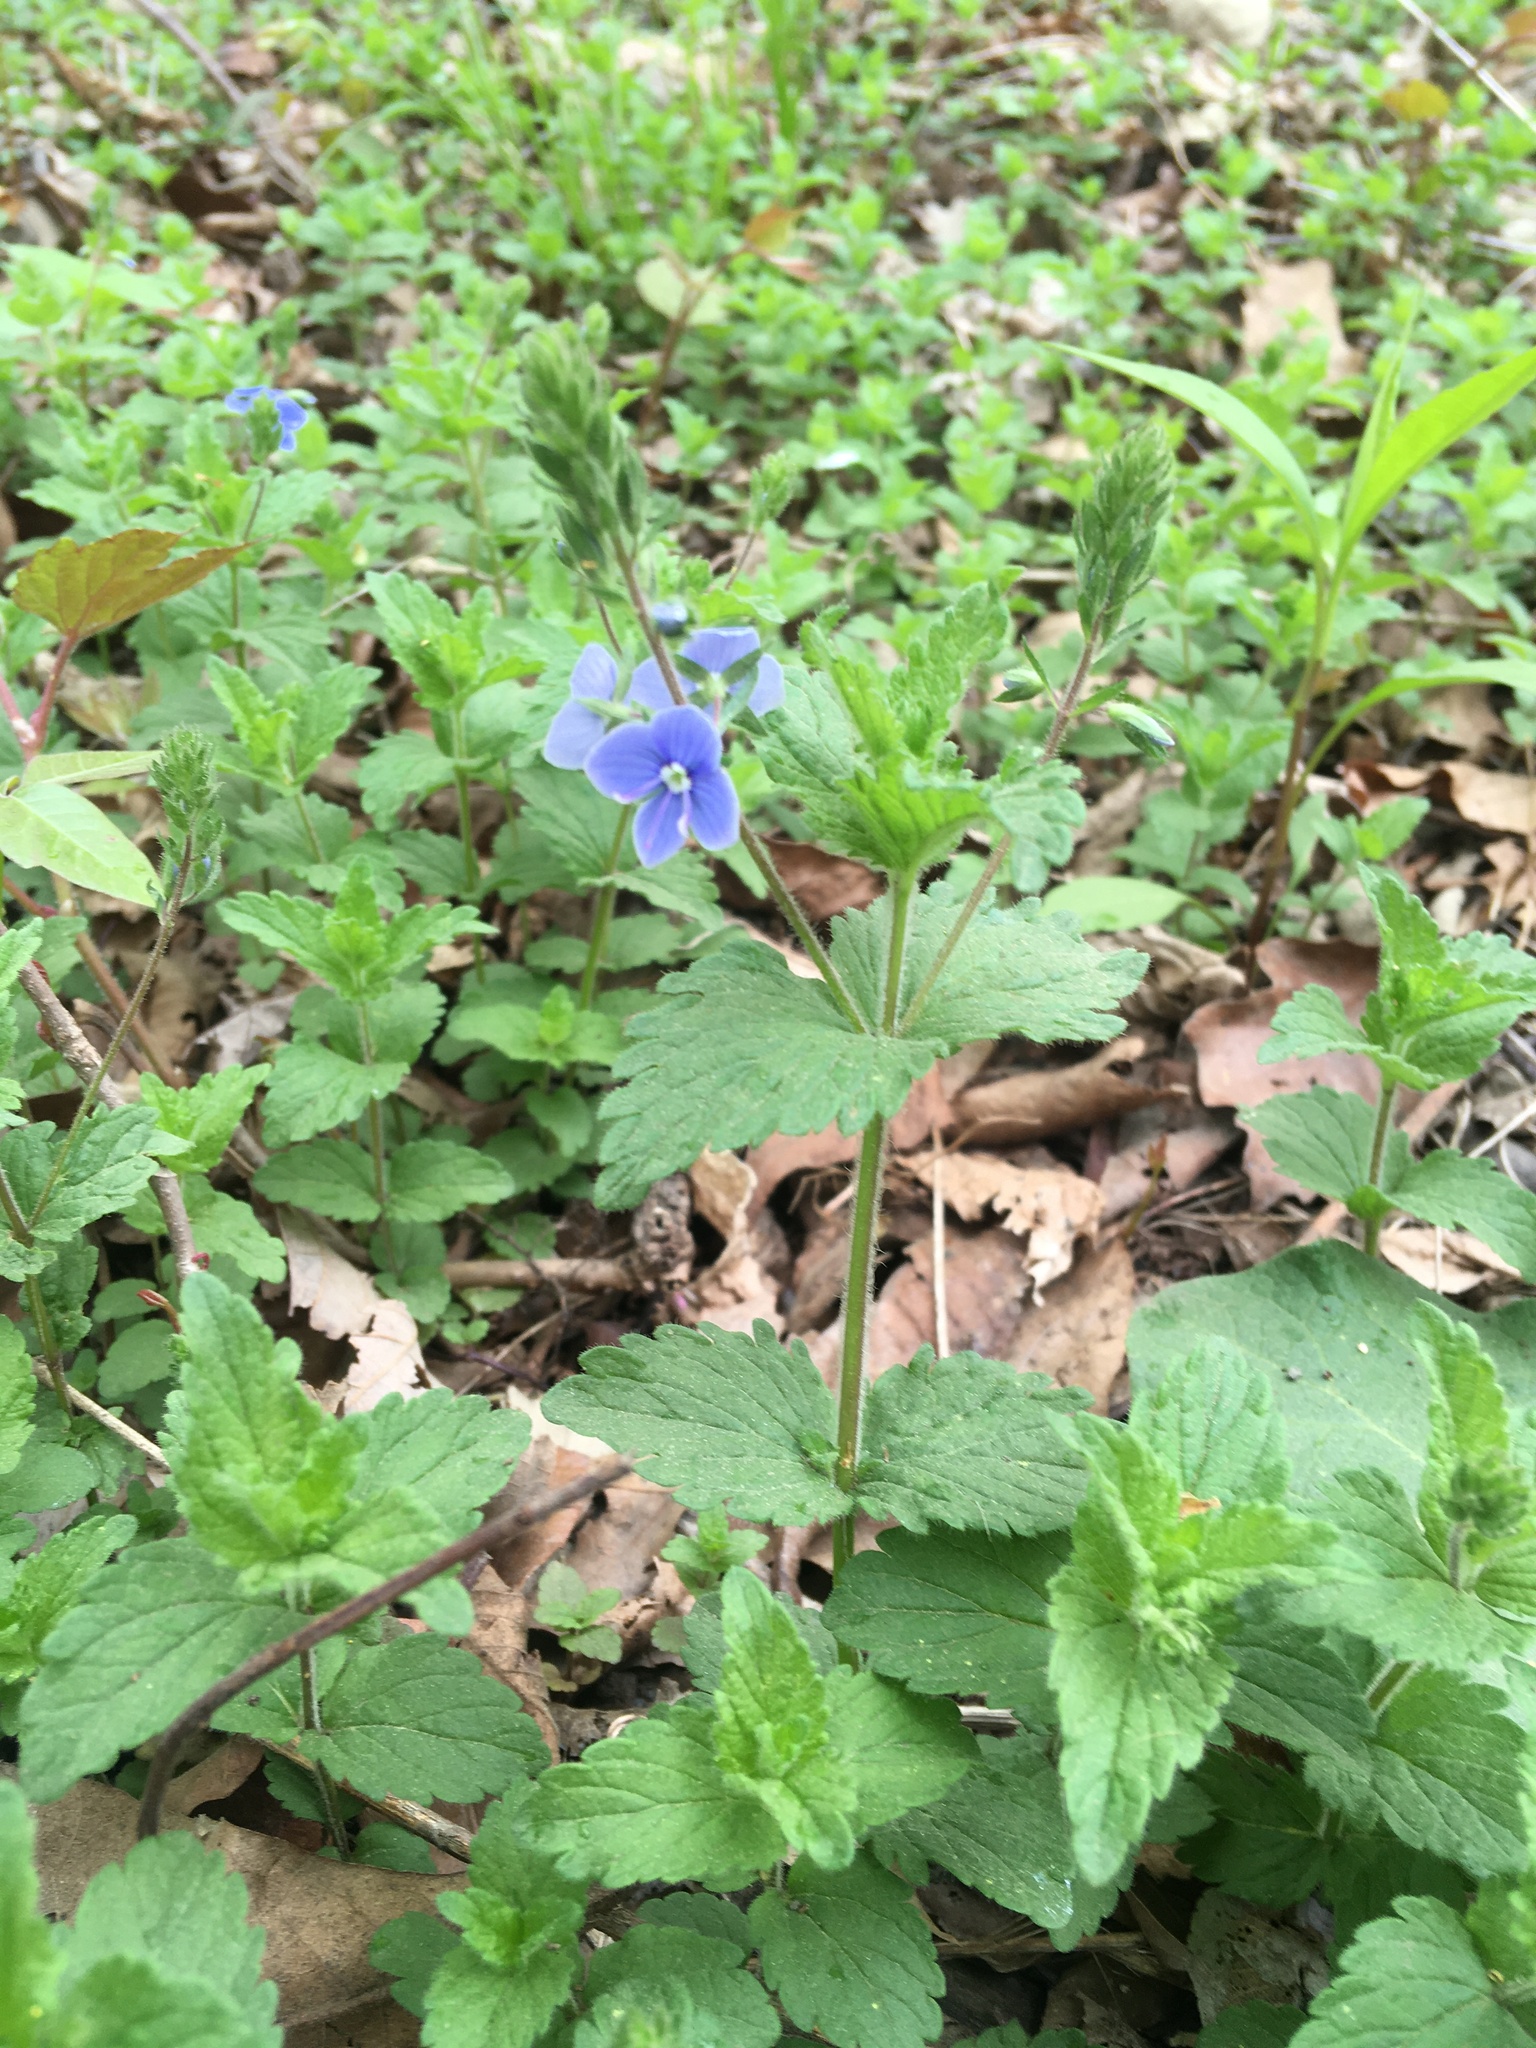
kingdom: Plantae
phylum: Tracheophyta
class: Magnoliopsida
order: Lamiales
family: Plantaginaceae
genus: Veronica
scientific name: Veronica chamaedrys
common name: Germander speedwell
